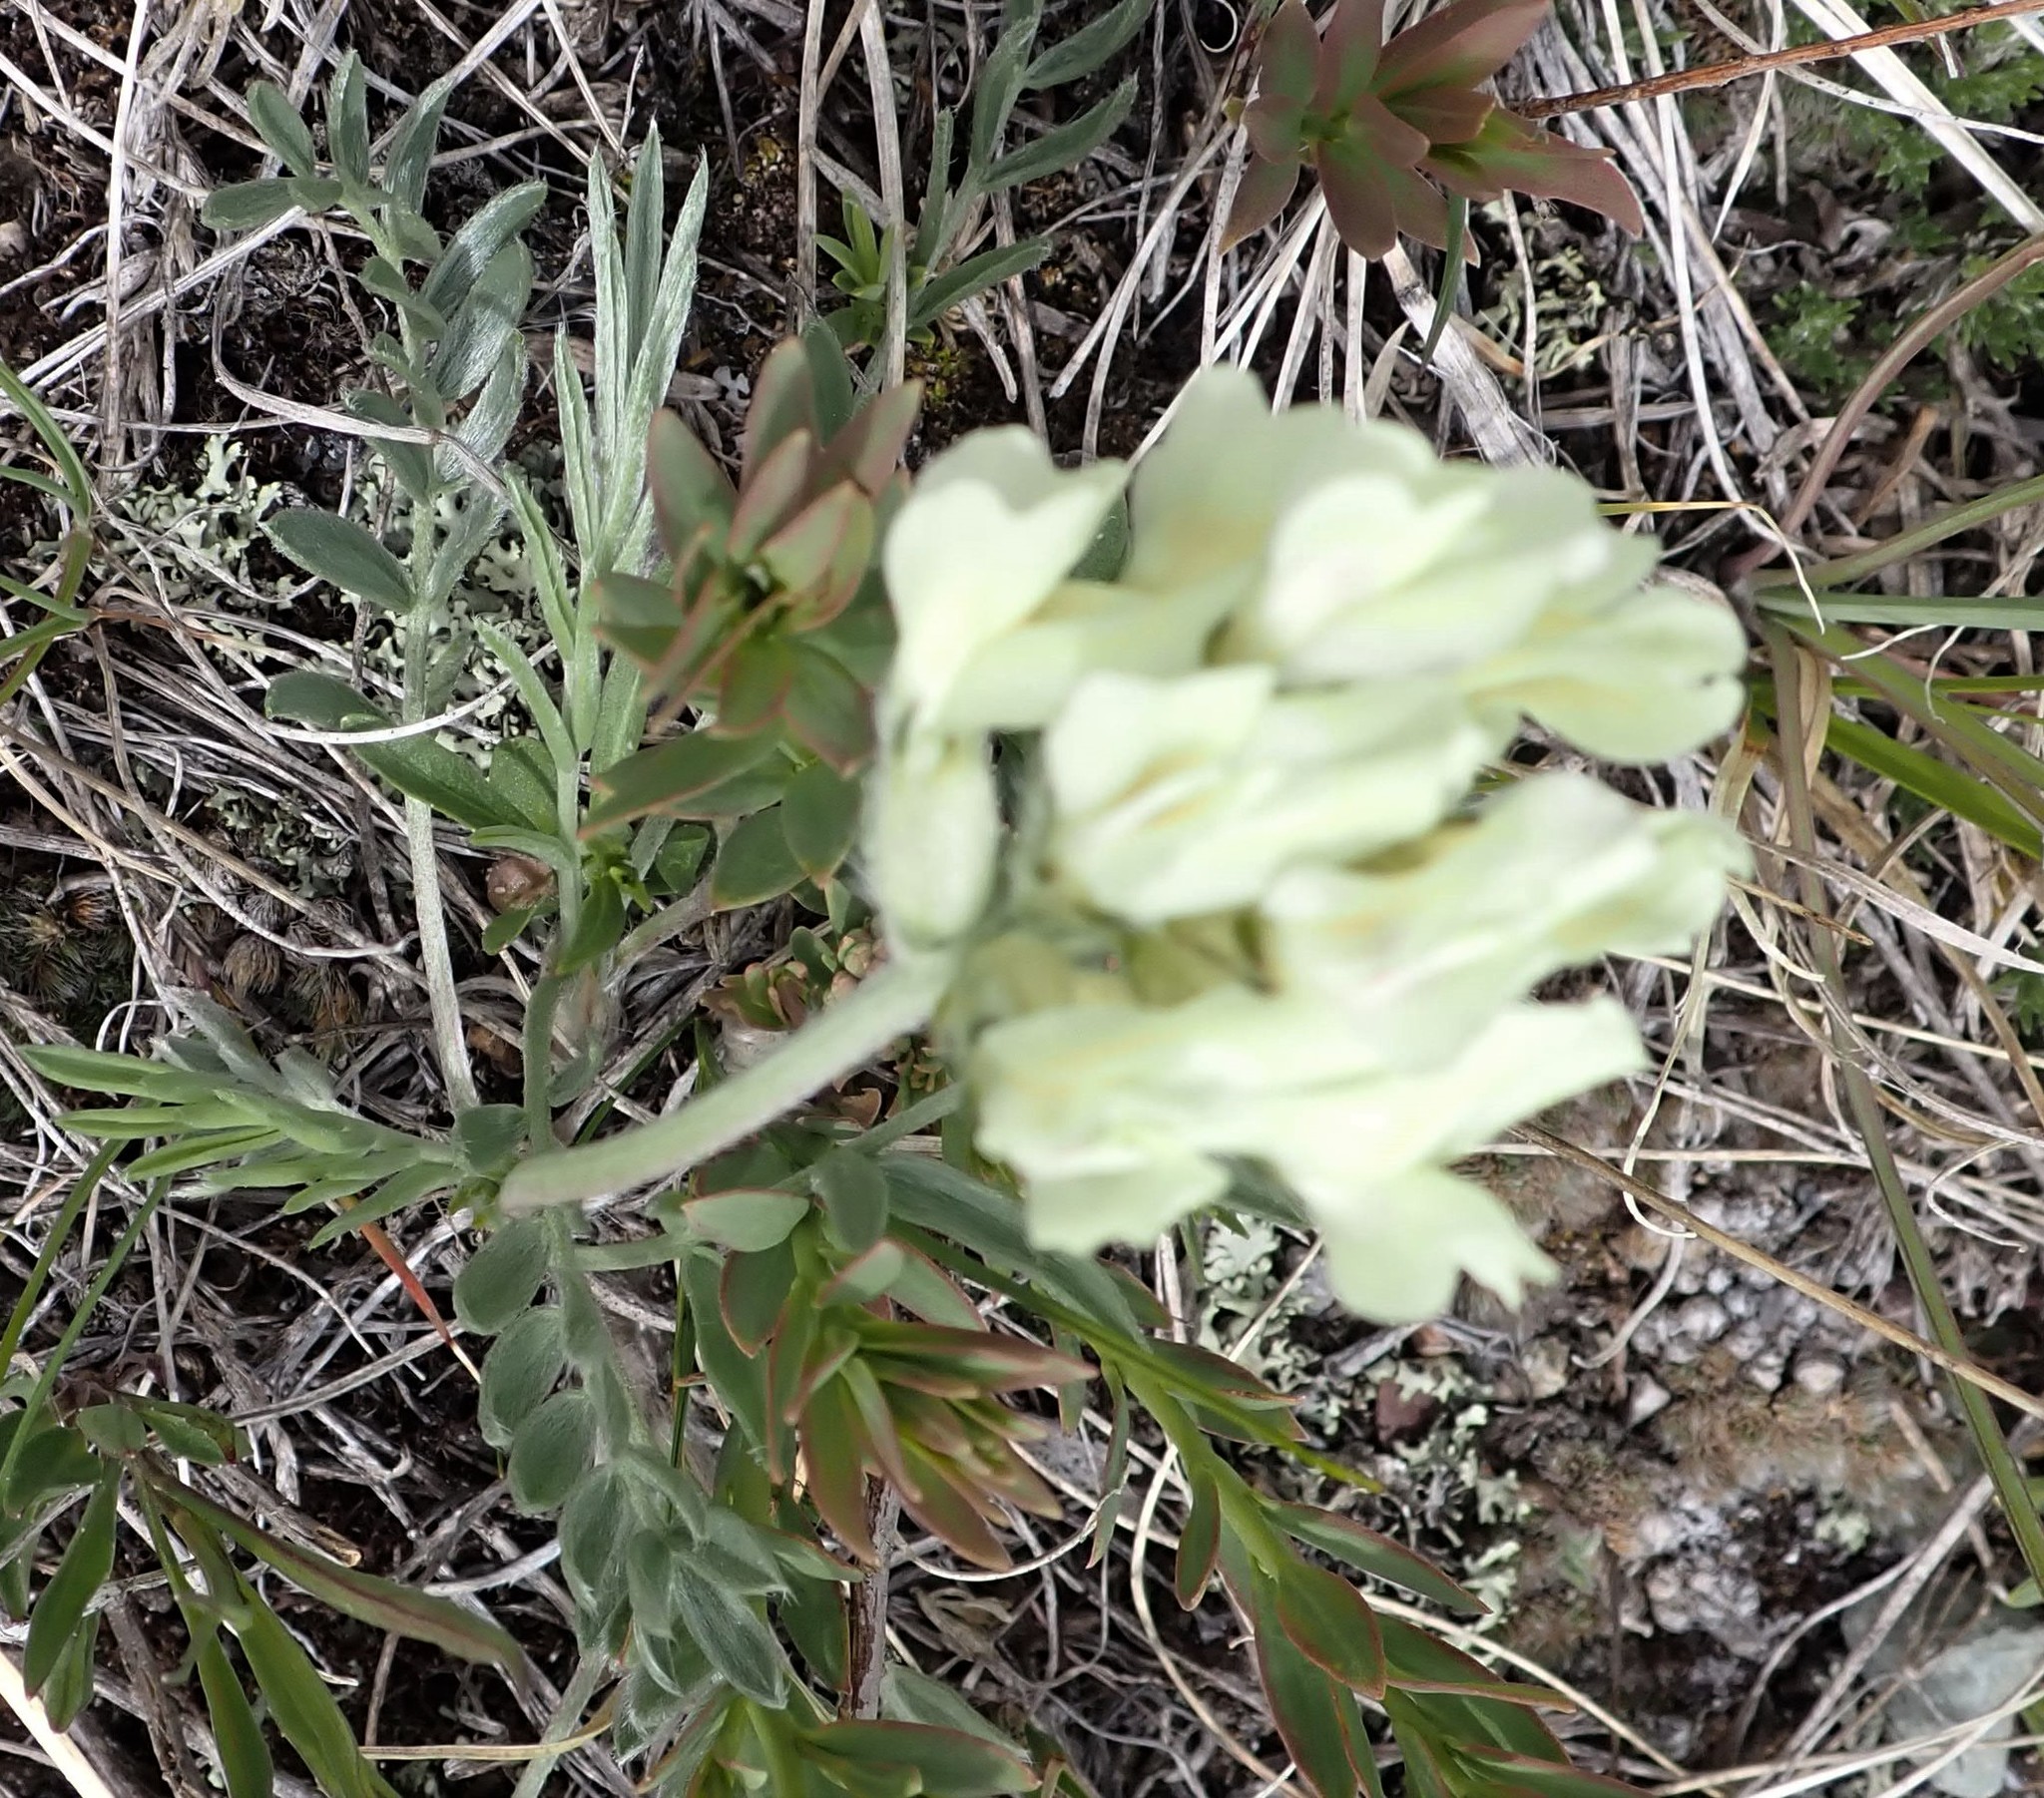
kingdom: Plantae
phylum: Tracheophyta
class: Magnoliopsida
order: Fabales
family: Fabaceae
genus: Oxytropis
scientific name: Oxytropis sericea
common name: Silky locoweed
